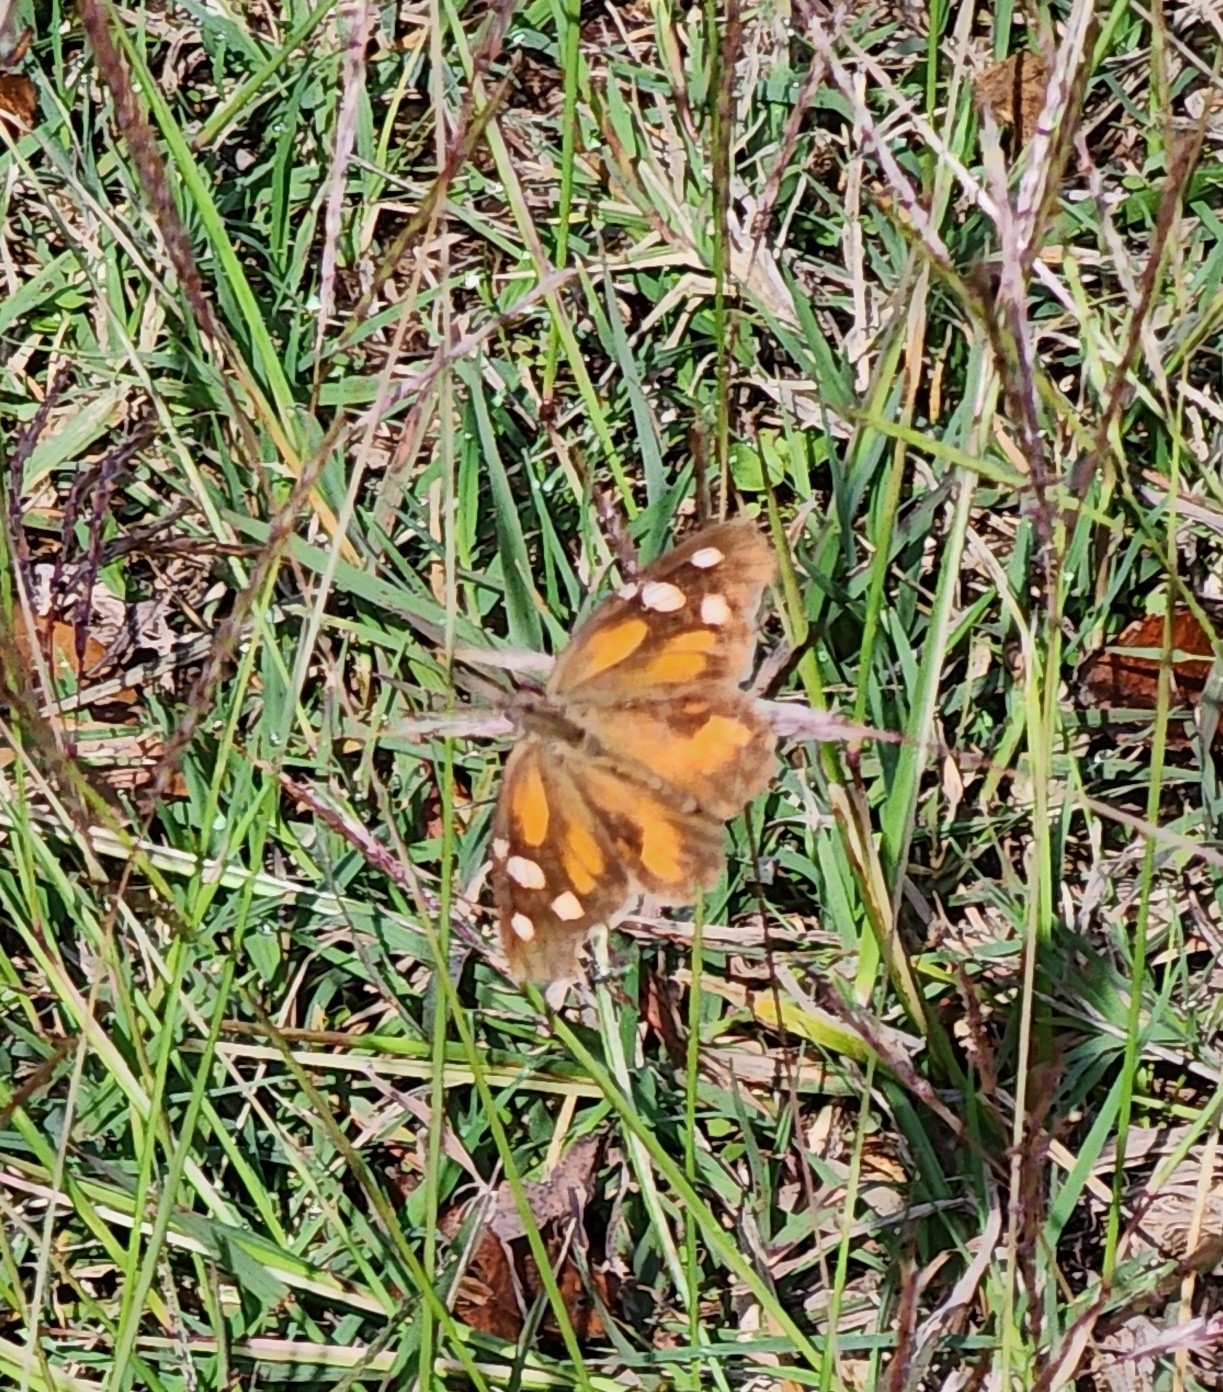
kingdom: Animalia
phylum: Arthropoda
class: Insecta
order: Lepidoptera
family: Nymphalidae
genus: Libytheana
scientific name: Libytheana carinenta
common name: American snout
